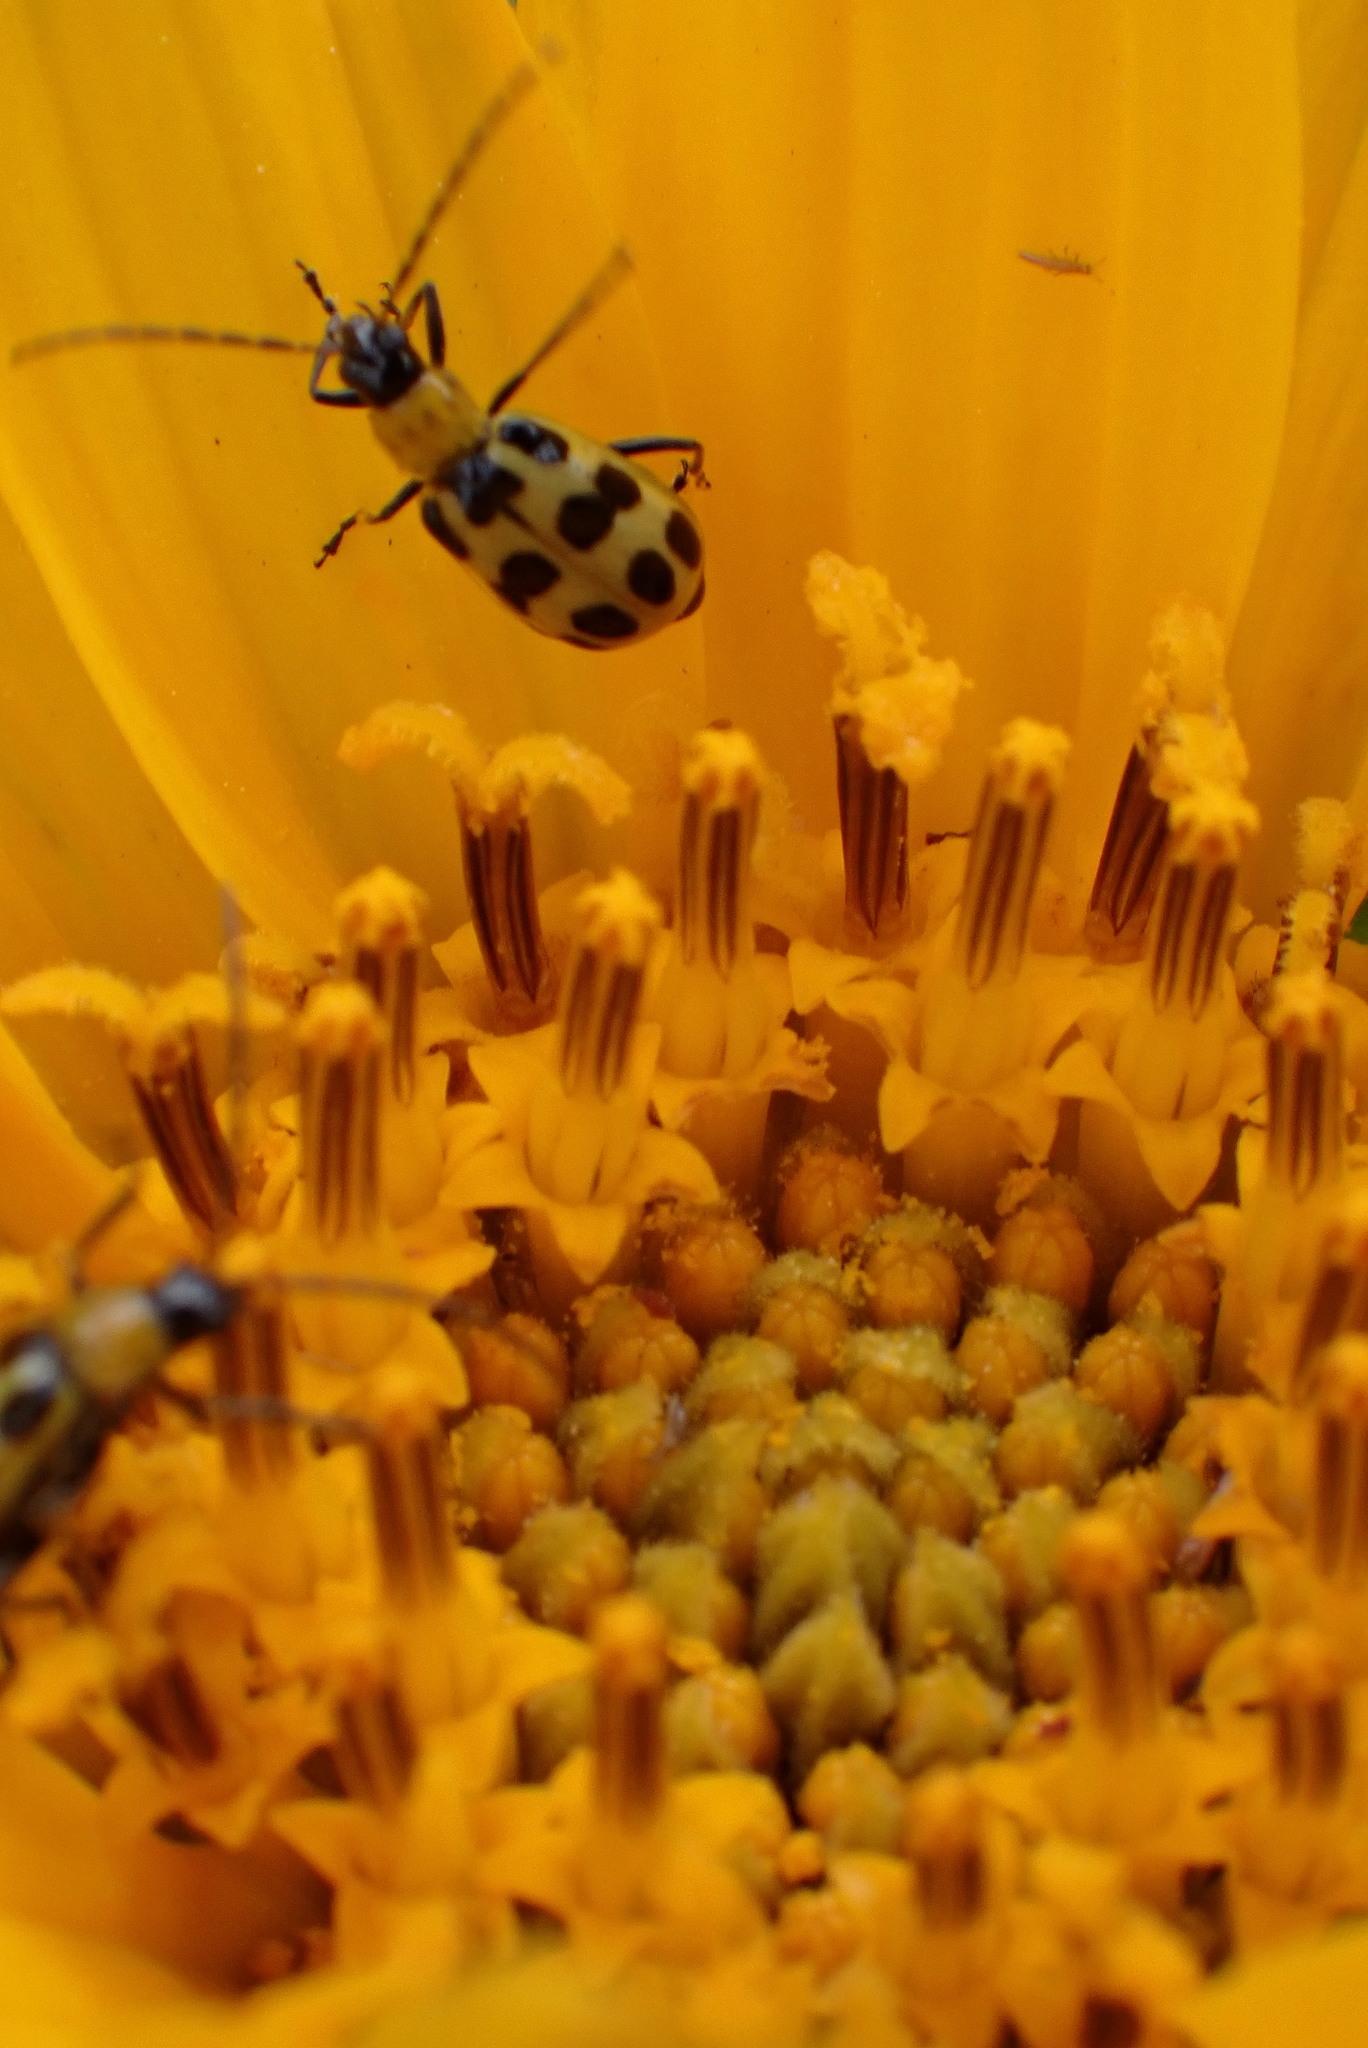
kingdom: Animalia
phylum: Arthropoda
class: Insecta
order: Coleoptera
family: Chrysomelidae
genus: Diabrotica
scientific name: Diabrotica undecimpunctata
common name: Spotted cucumber beetle
